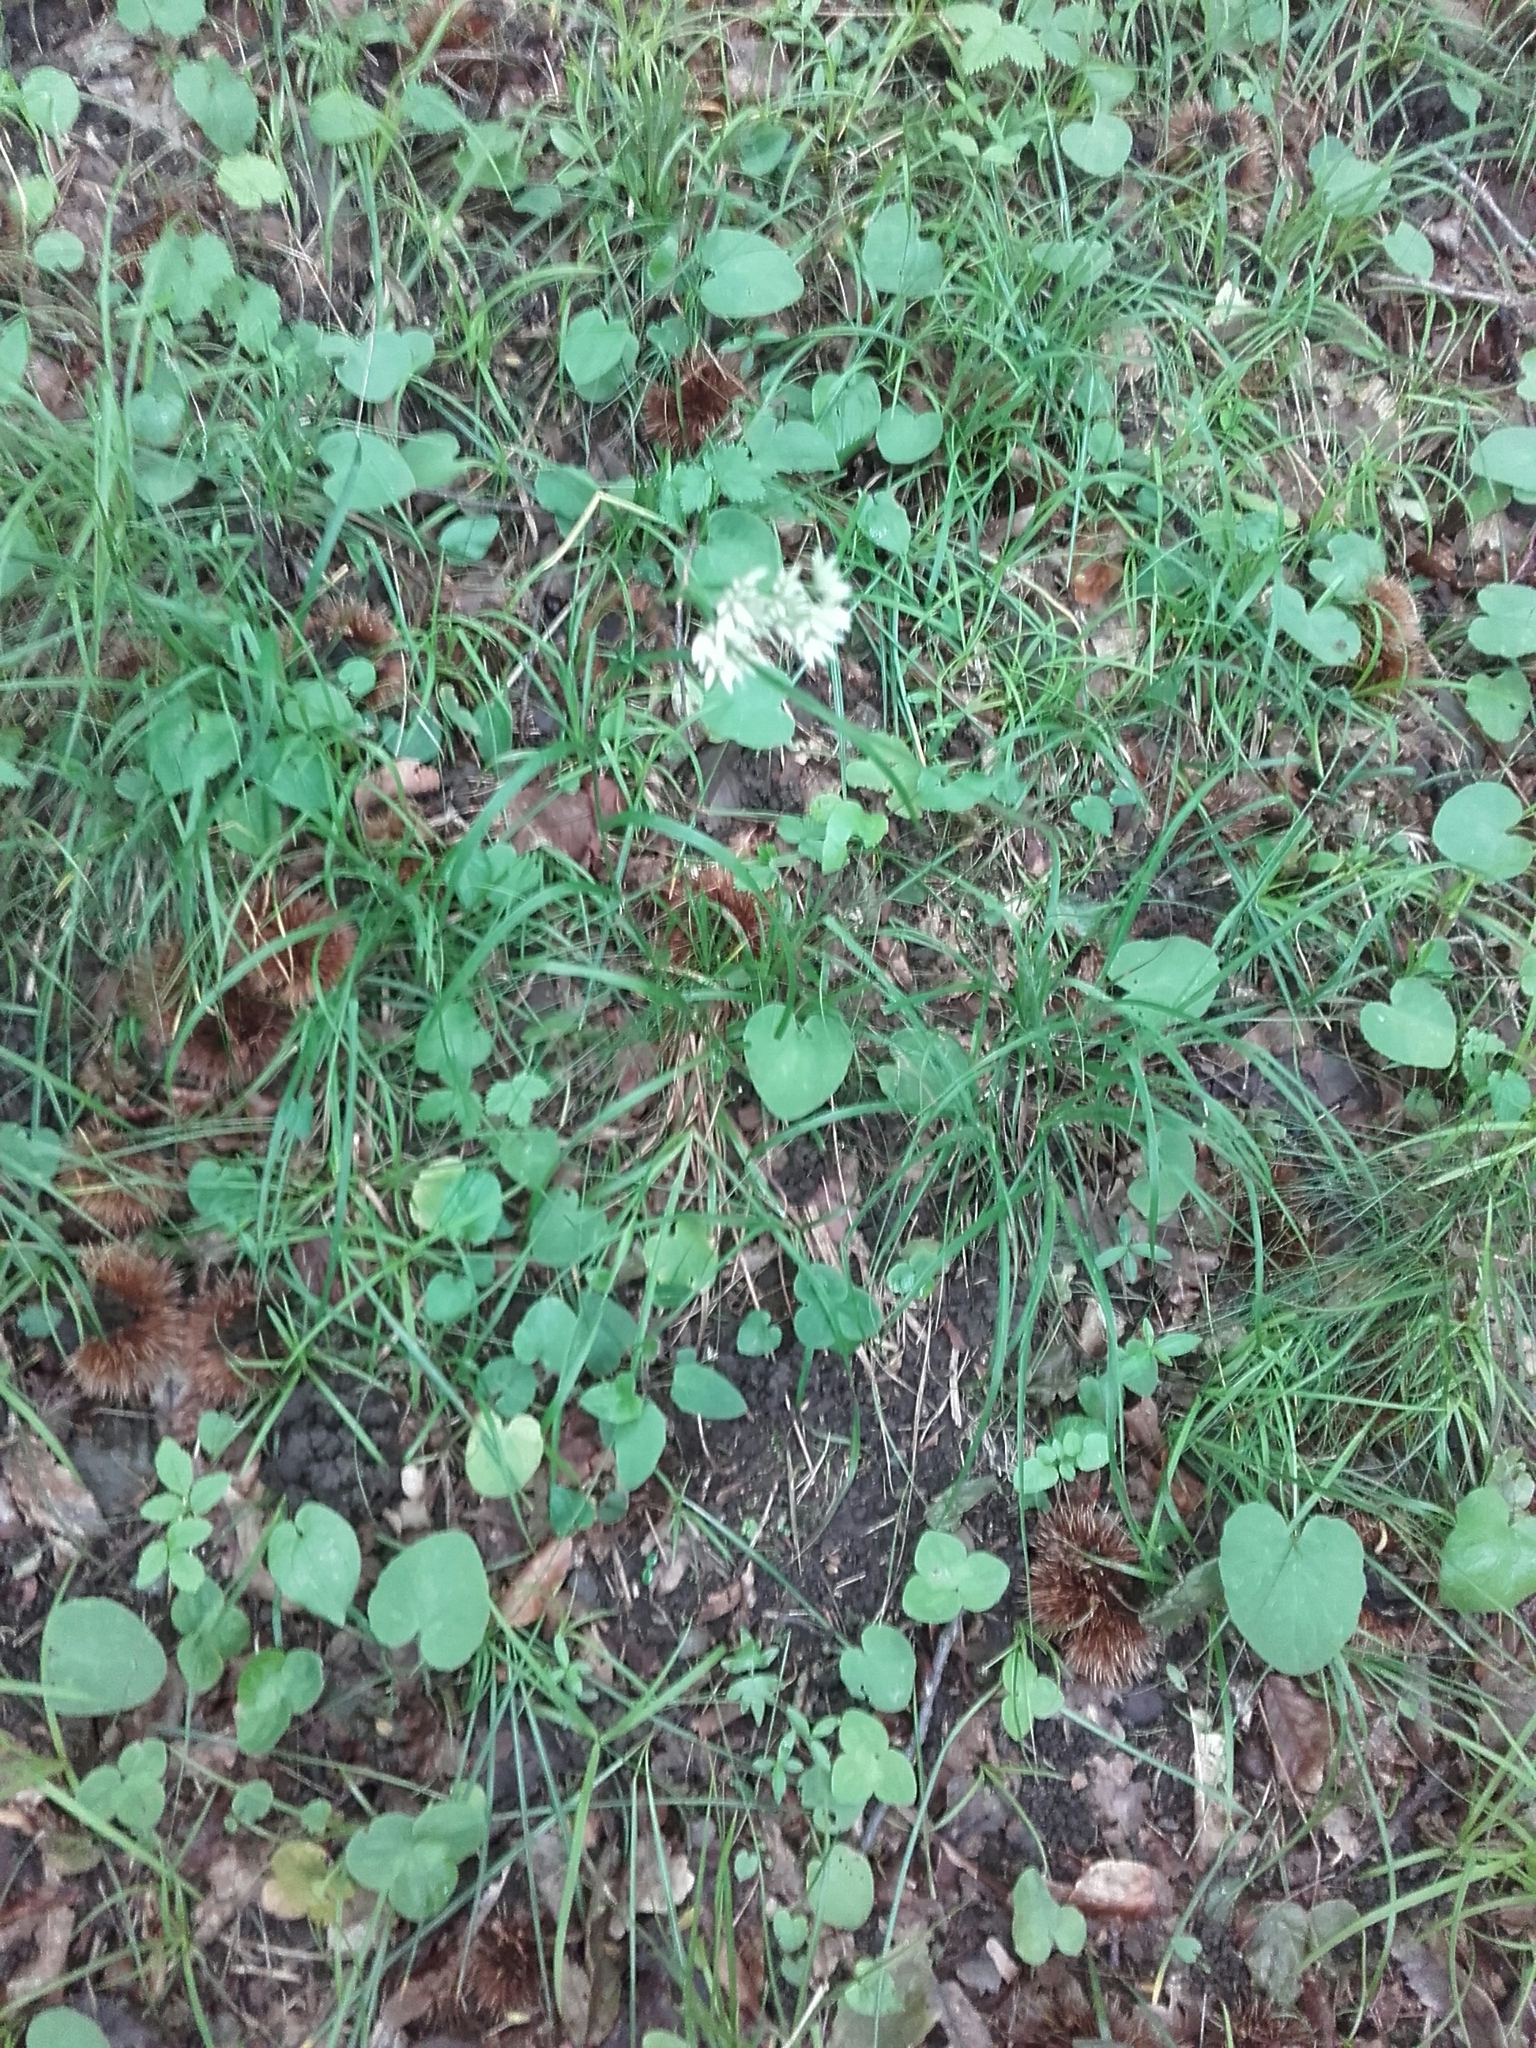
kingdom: Plantae
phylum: Tracheophyta
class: Liliopsida
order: Poales
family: Juncaceae
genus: Luzula
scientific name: Luzula nivea
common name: Snow-white wood-rush
